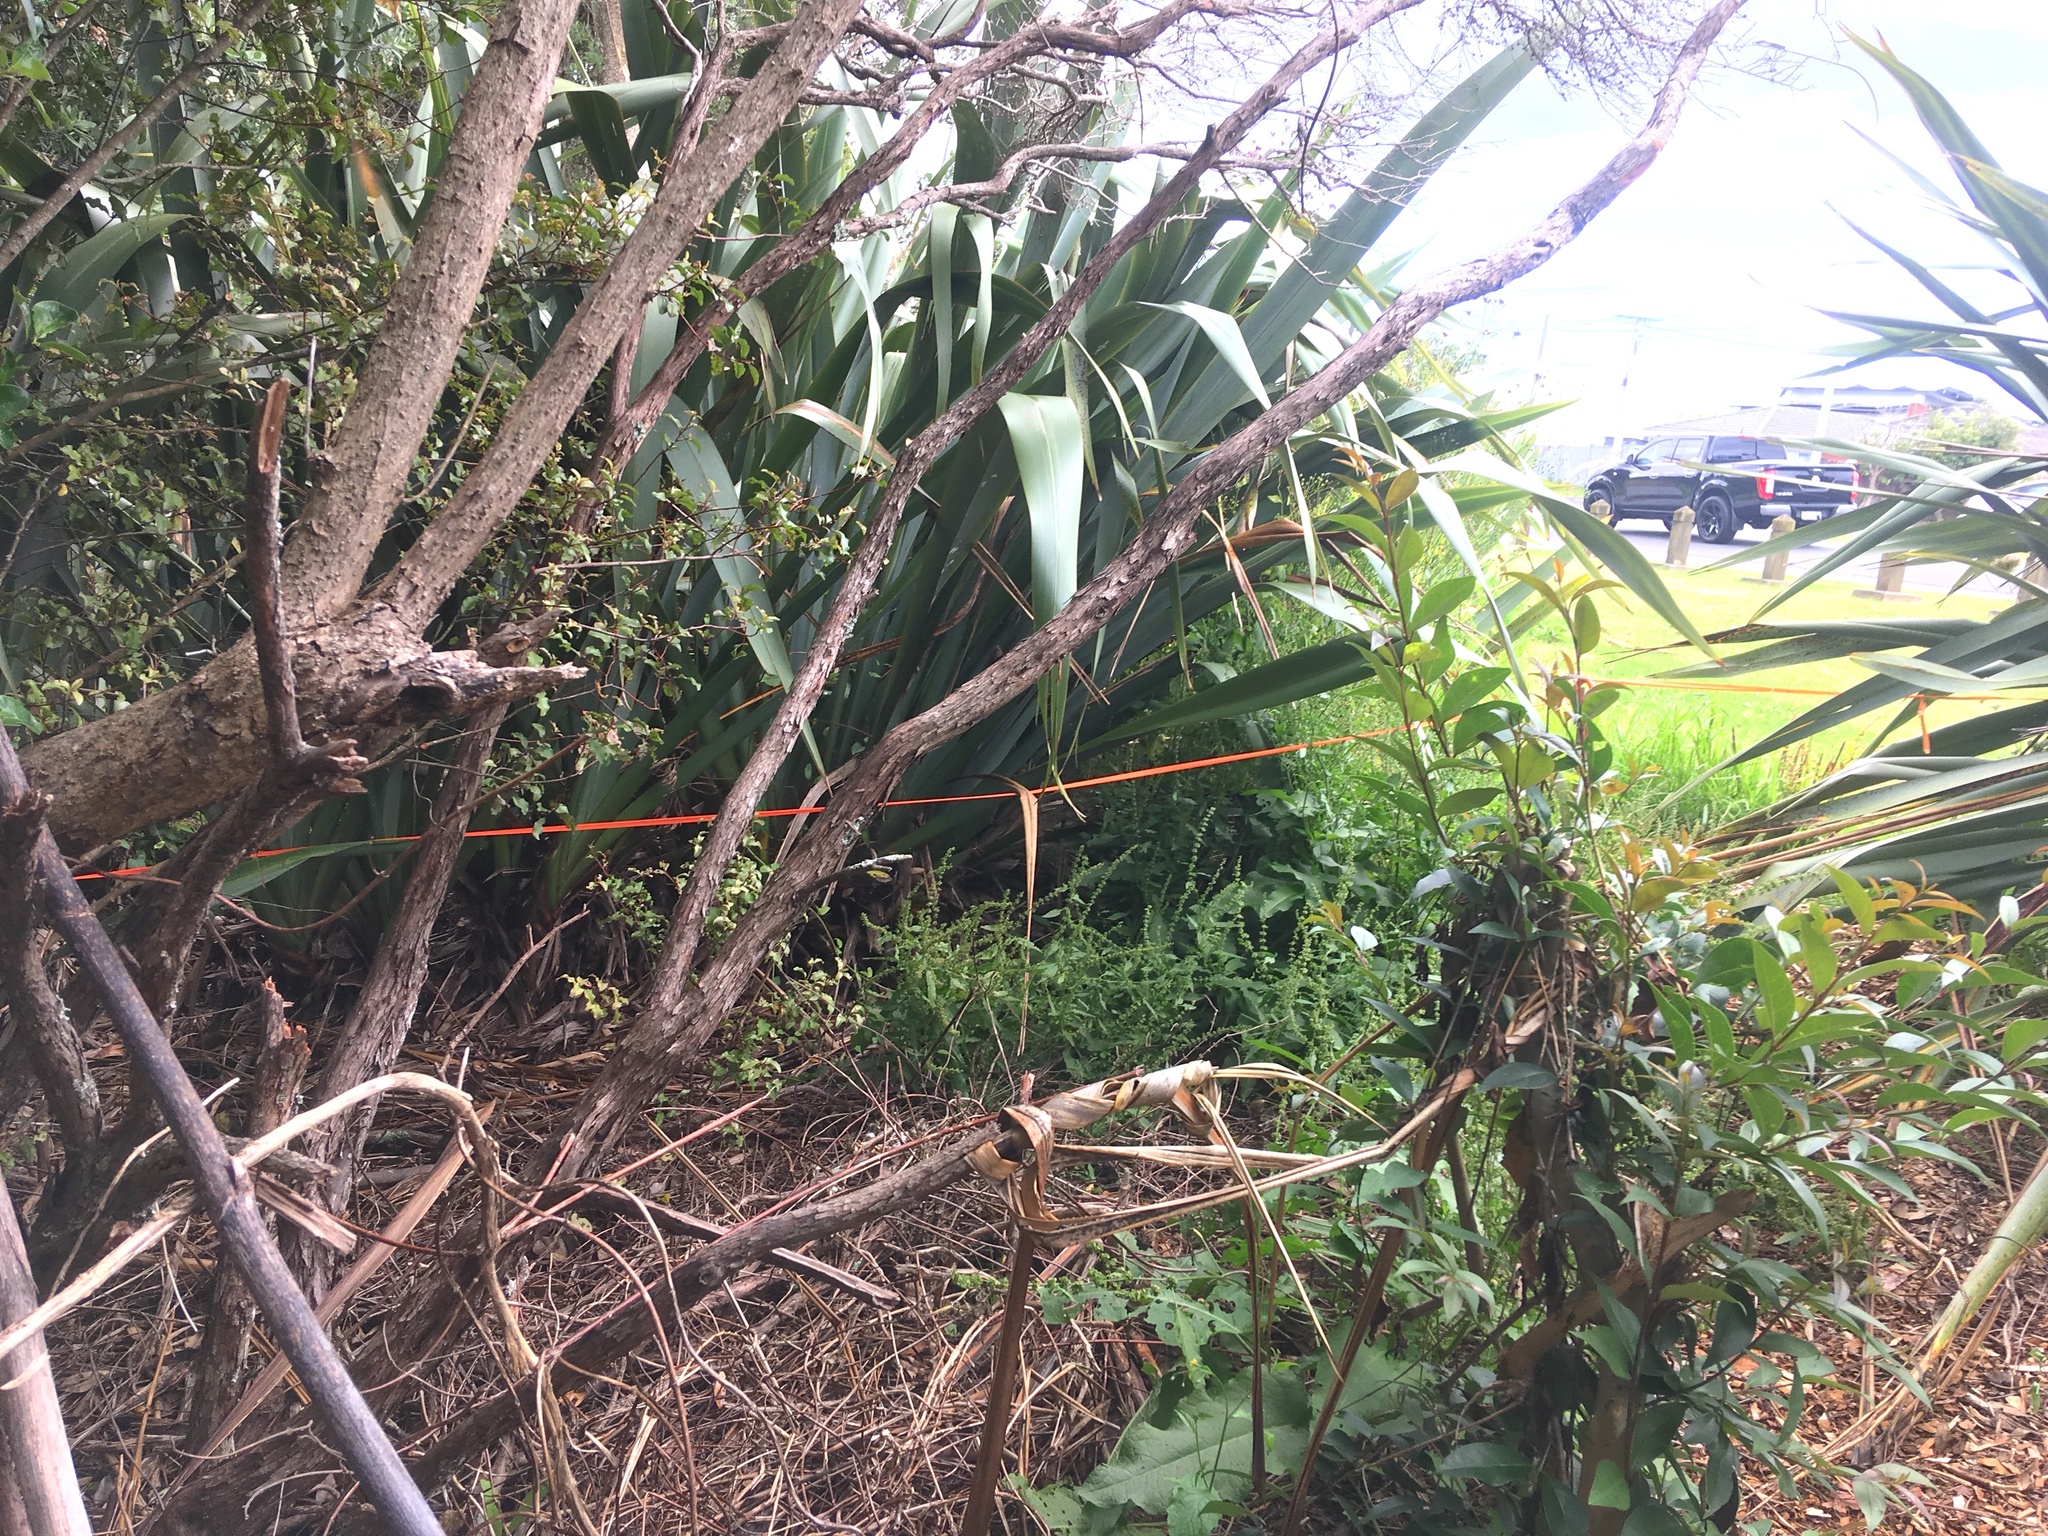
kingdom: Plantae
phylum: Tracheophyta
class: Magnoliopsida
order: Lamiales
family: Oleaceae
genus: Ligustrum
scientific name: Ligustrum lucidum
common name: Glossy privet
